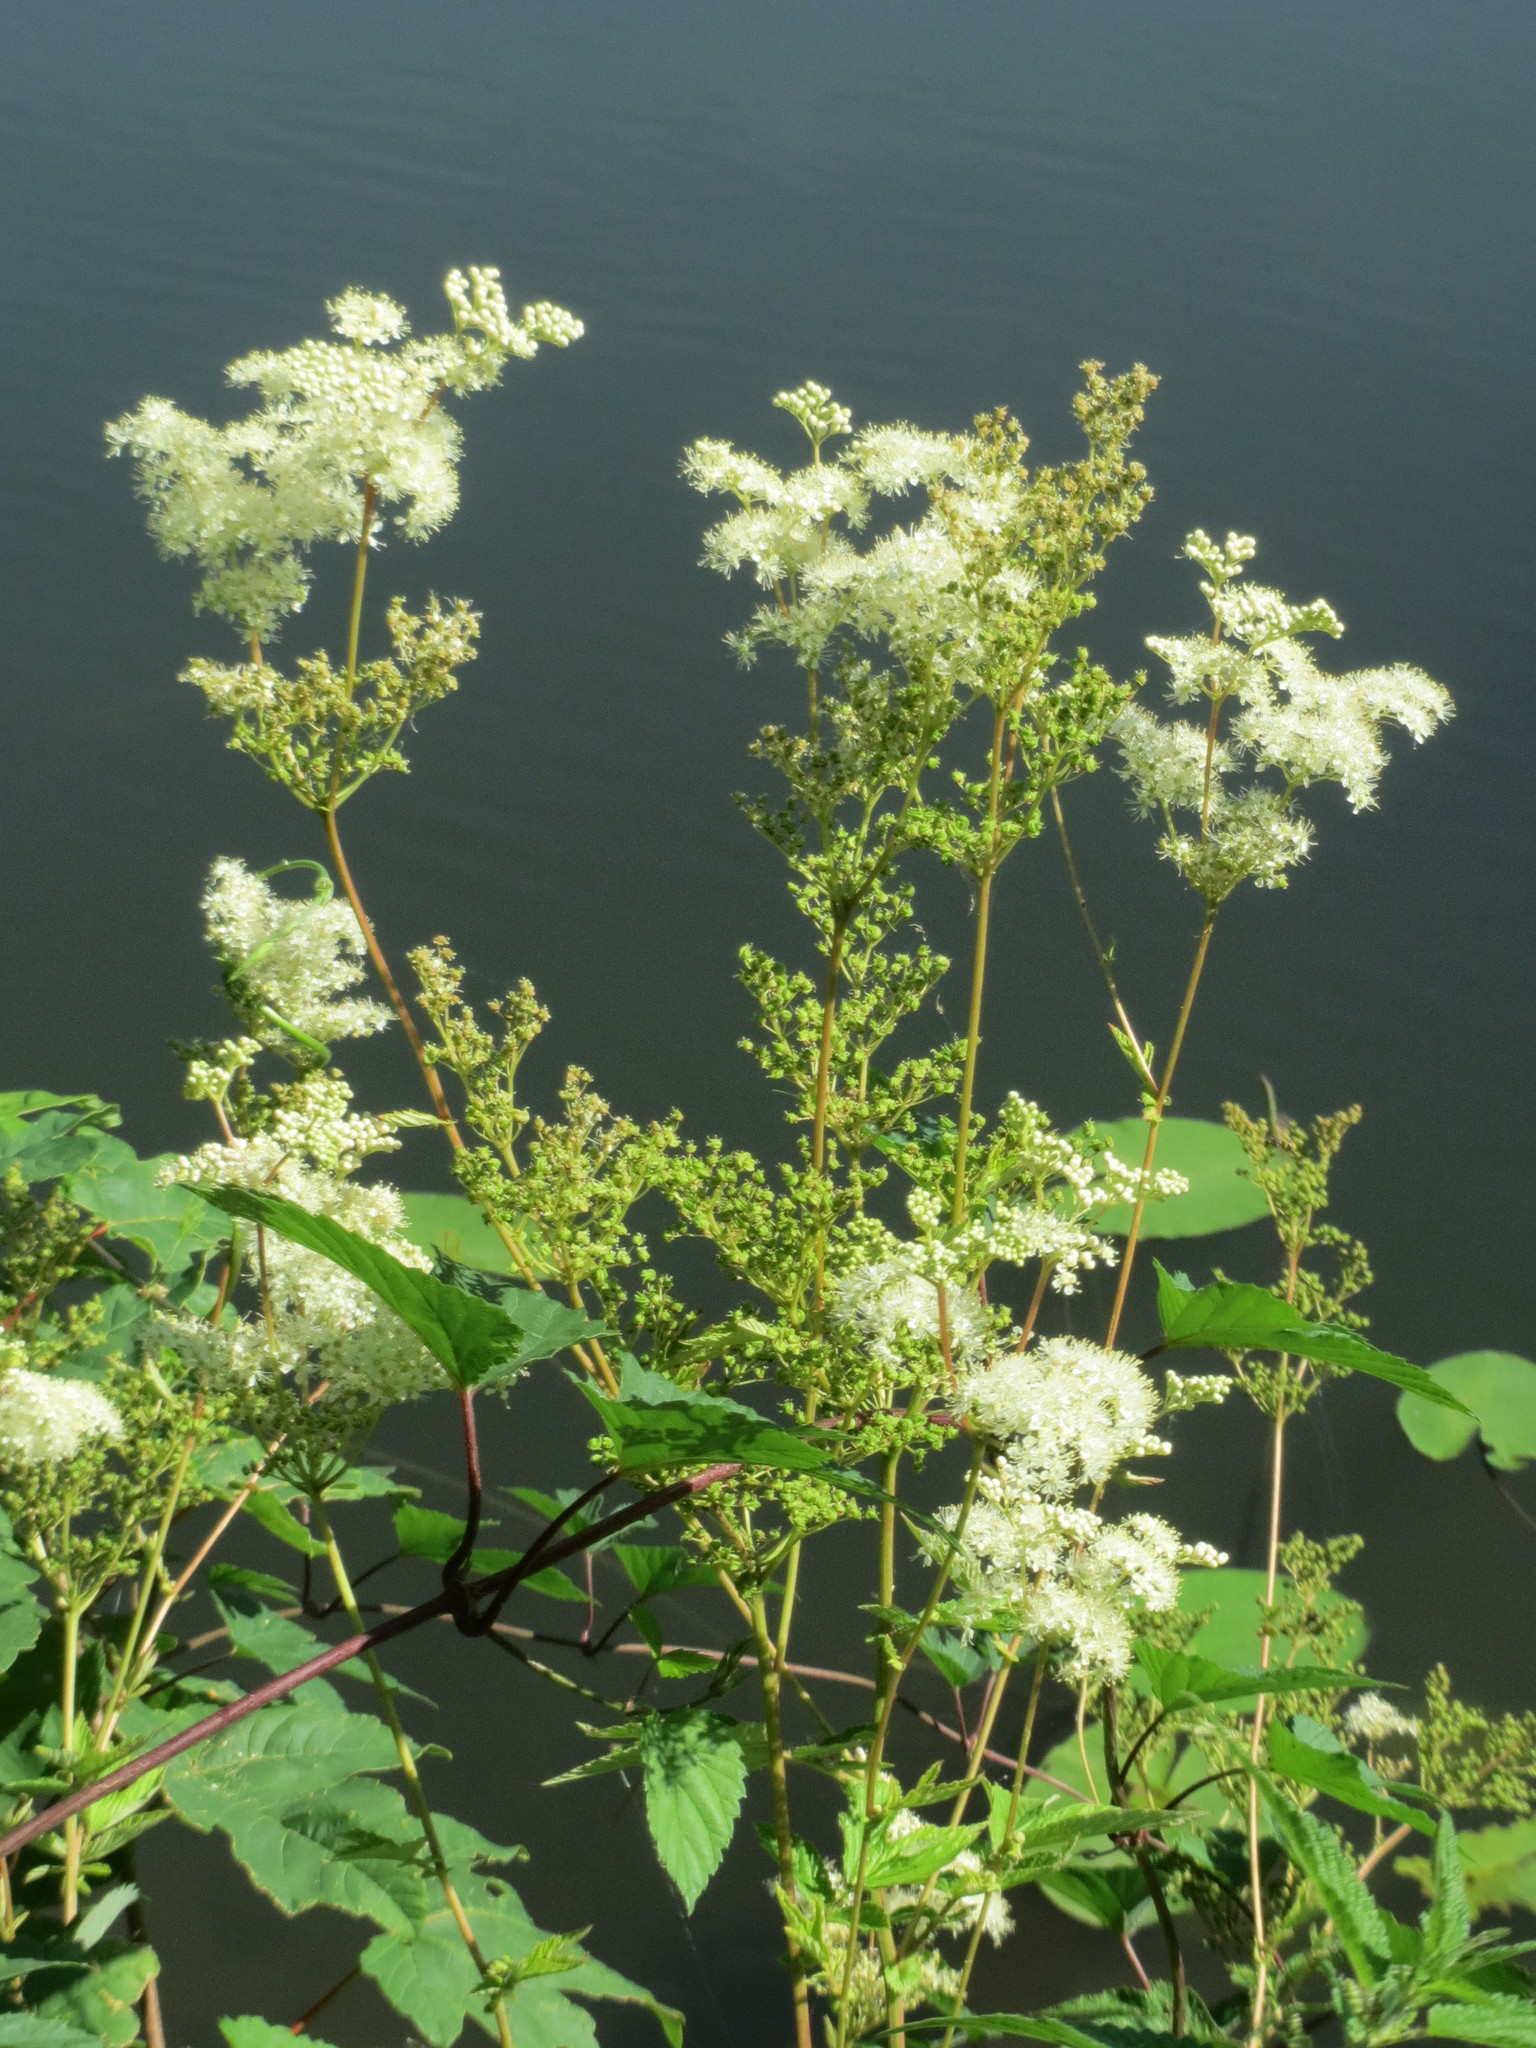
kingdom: Plantae
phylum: Tracheophyta
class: Magnoliopsida
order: Rosales
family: Rosaceae
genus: Filipendula
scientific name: Filipendula ulmaria
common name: Meadowsweet
